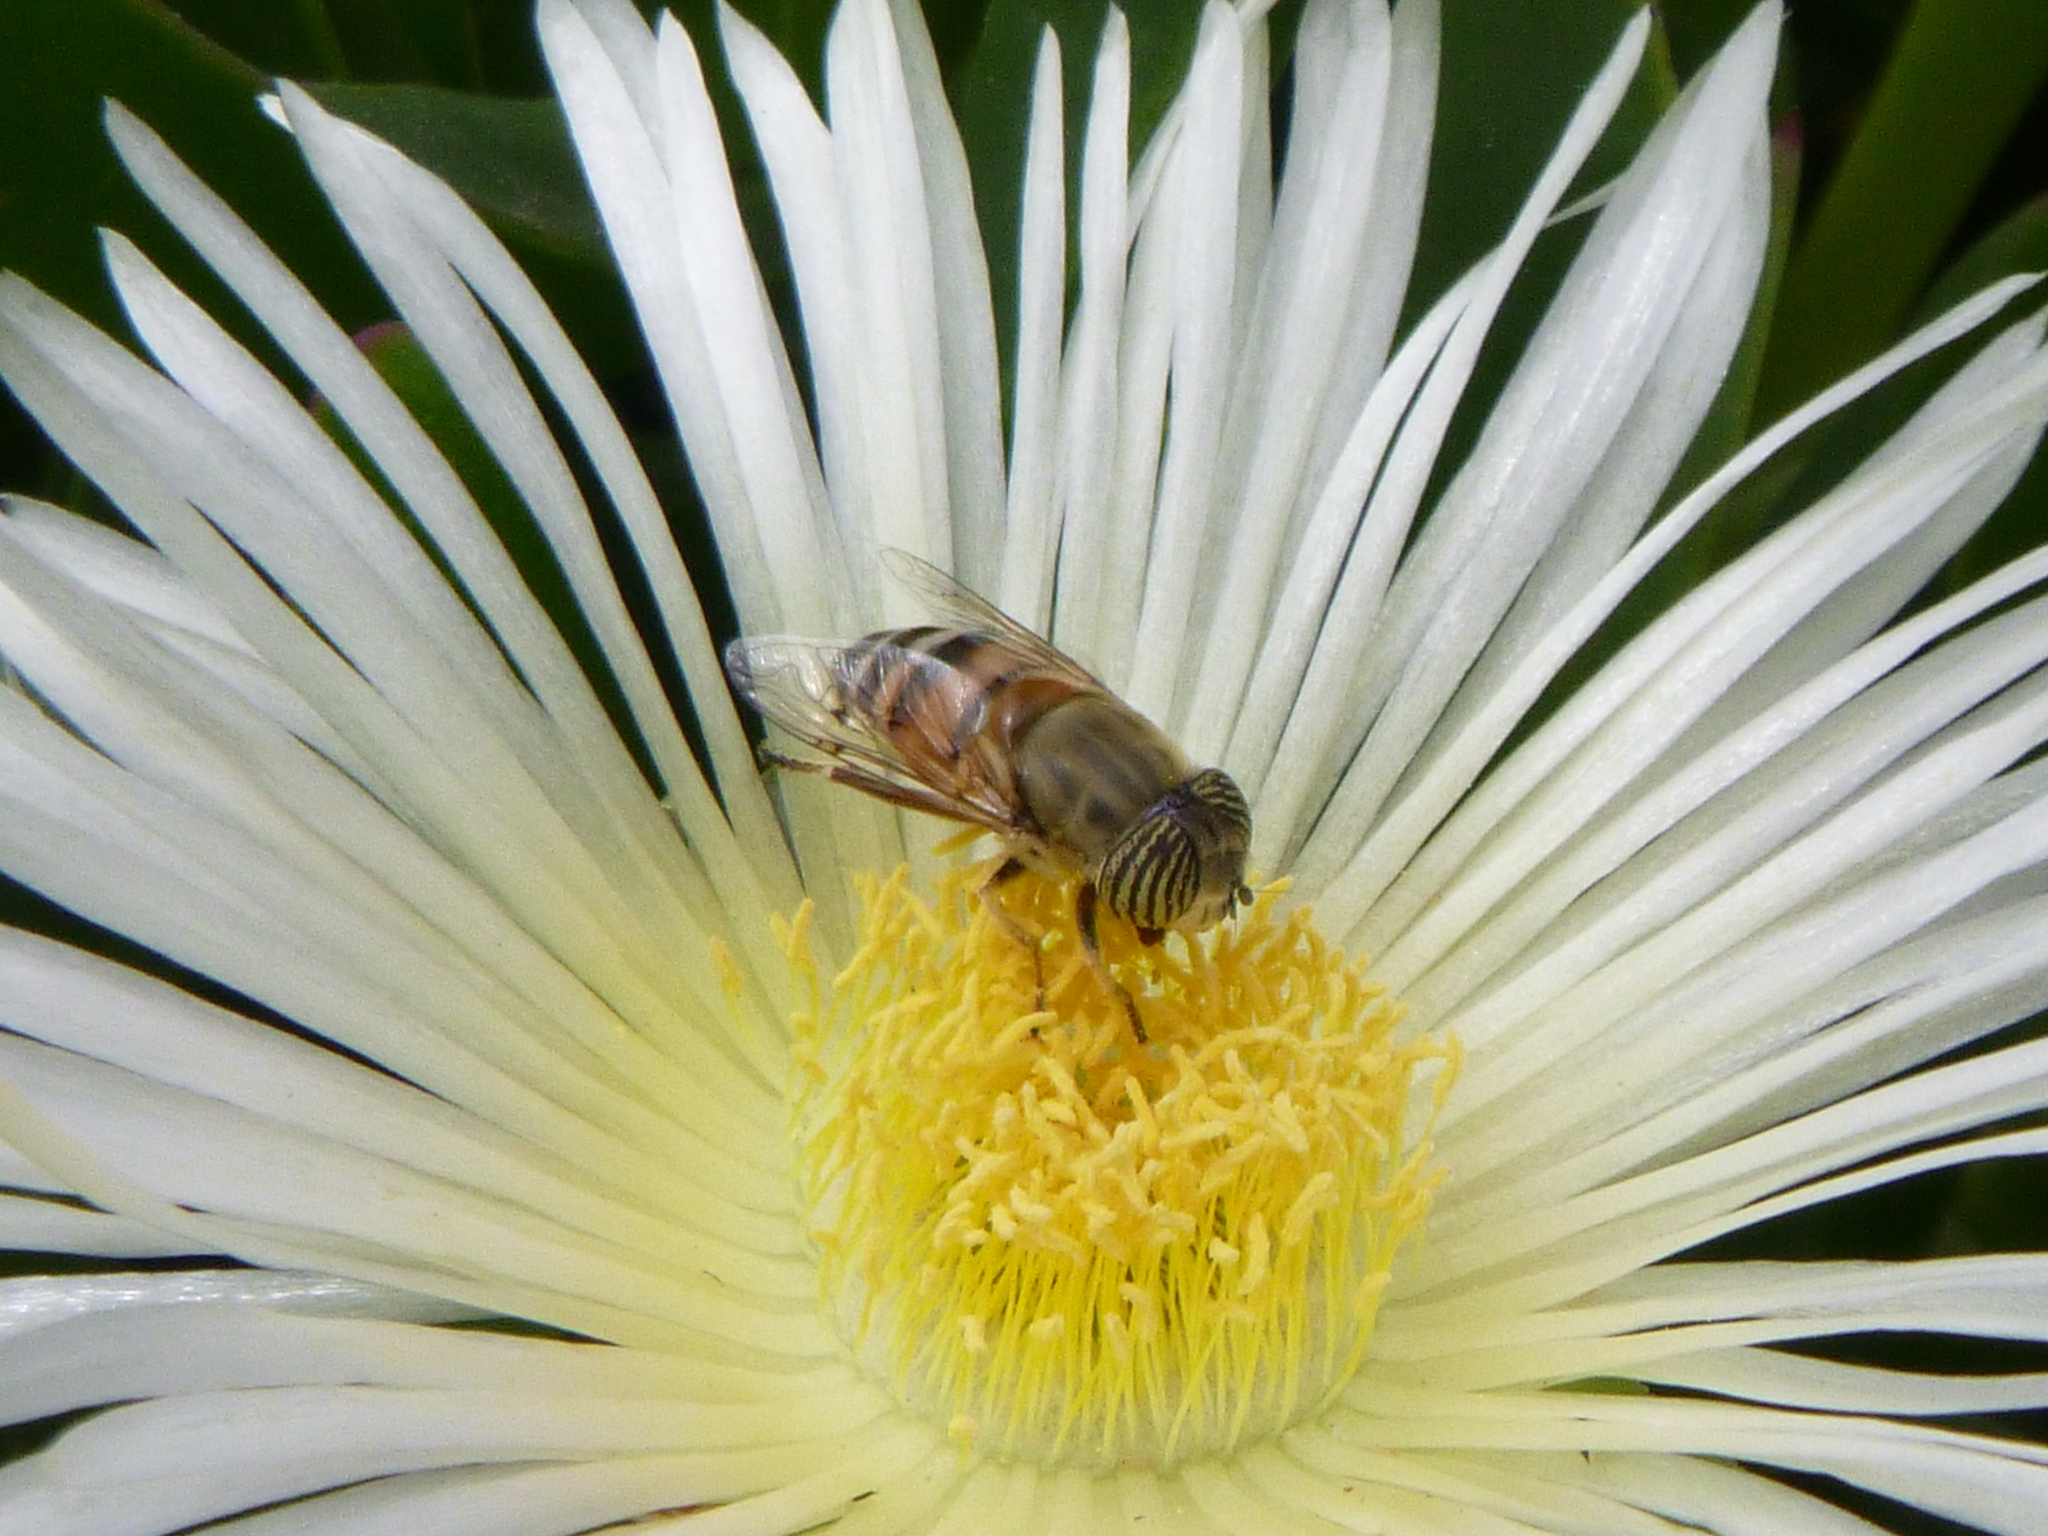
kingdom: Animalia
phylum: Arthropoda
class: Insecta
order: Diptera
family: Syrphidae
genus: Eristalinus
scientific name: Eristalinus taeniops
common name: Syrphid fly
